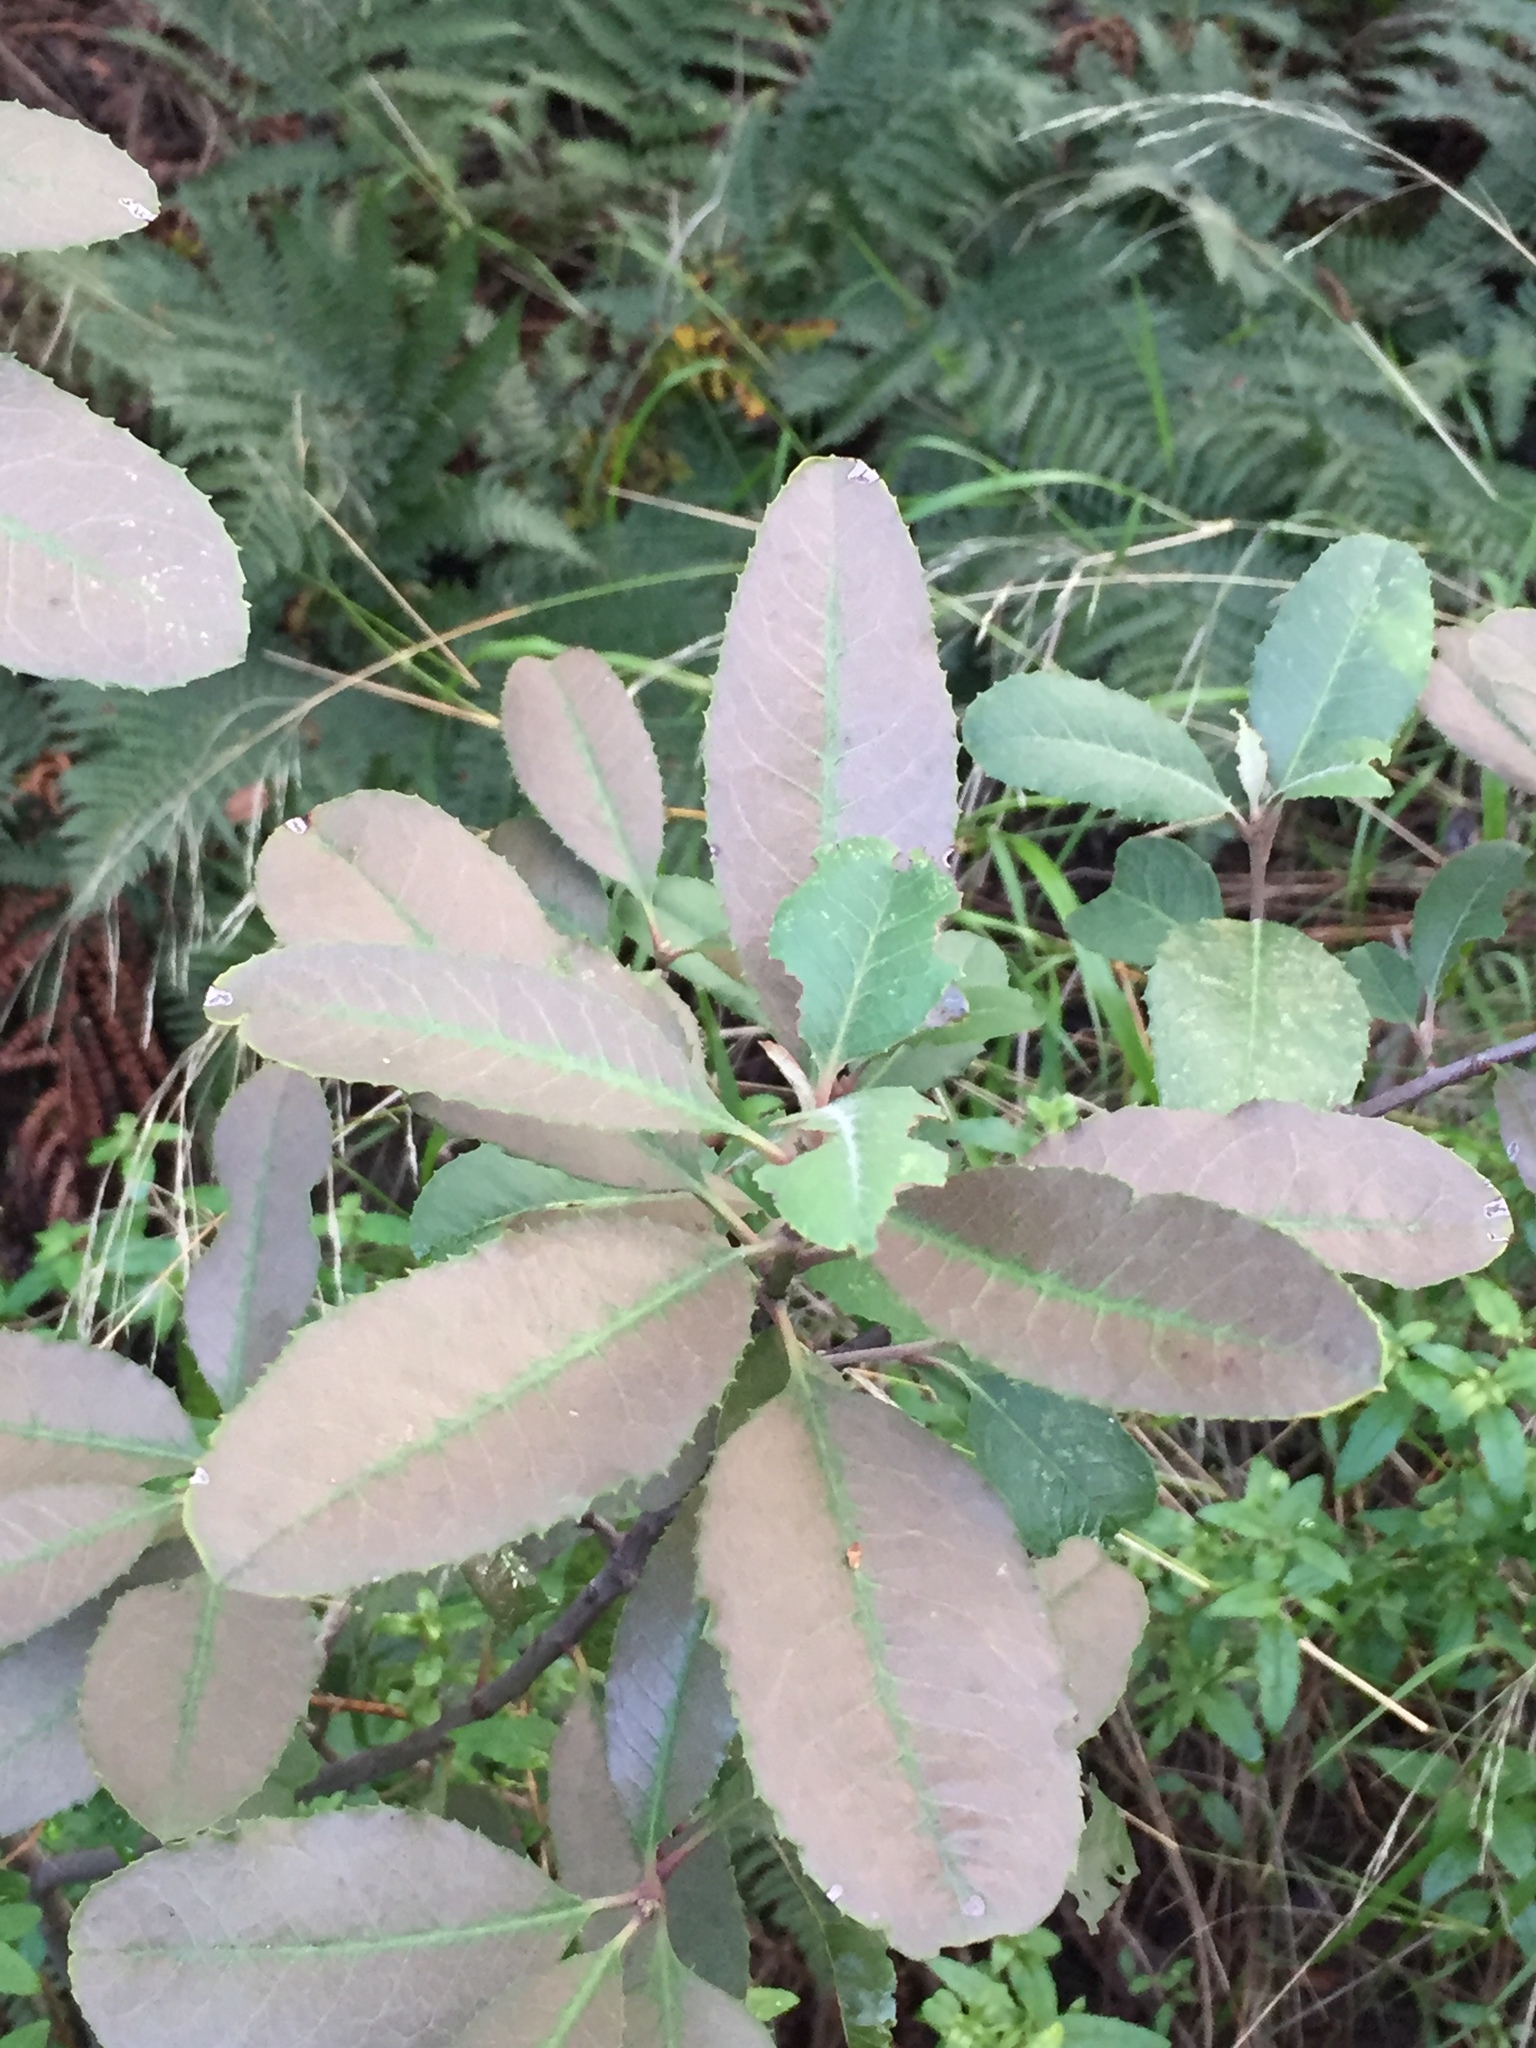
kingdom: Plantae
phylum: Tracheophyta
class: Magnoliopsida
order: Rosales
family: Rosaceae
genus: Heteromeles
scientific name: Heteromeles arbutifolia
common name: California-holly
